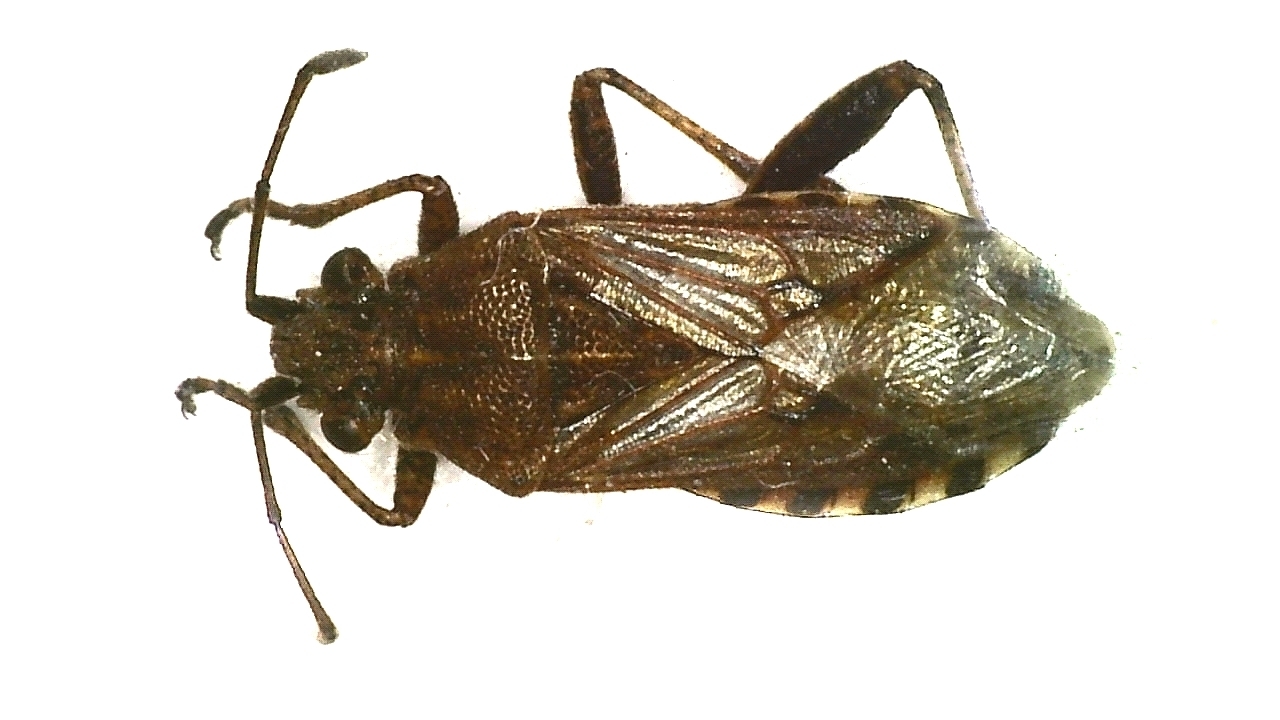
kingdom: Animalia
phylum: Arthropoda
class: Insecta
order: Hemiptera
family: Rhopalidae
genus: Stictopleurus
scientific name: Stictopleurus punctatonervosus
